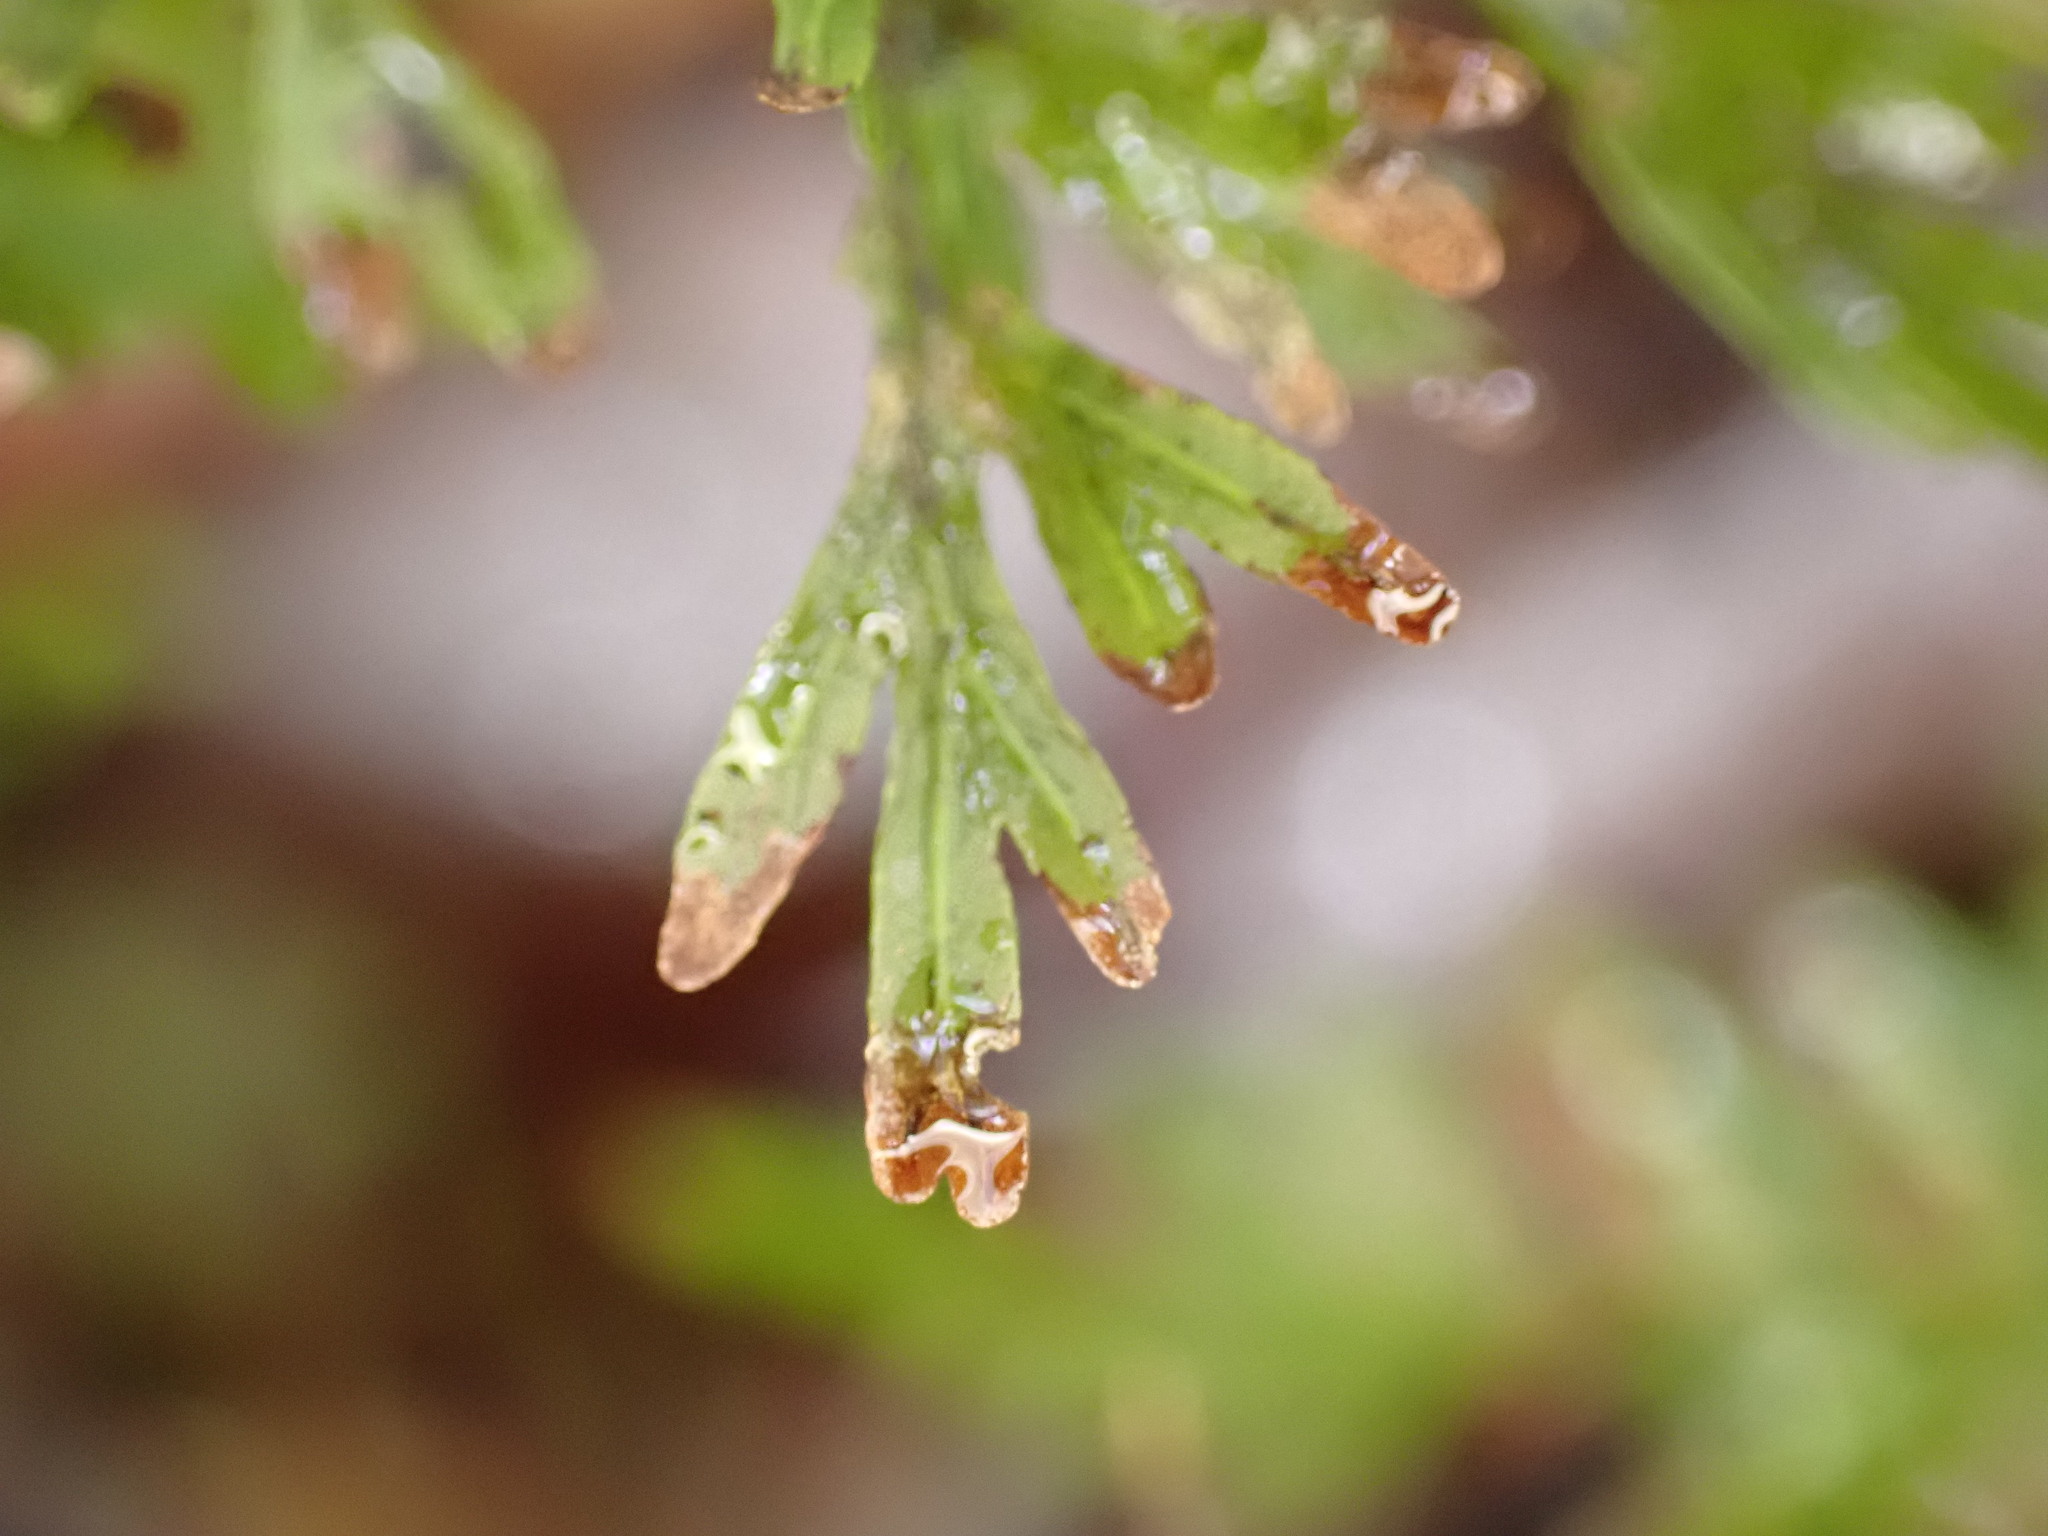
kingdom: Plantae
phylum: Tracheophyta
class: Polypodiopsida
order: Hymenophyllales
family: Hymenophyllaceae
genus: Hymenophyllum
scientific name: Hymenophyllum demissum
